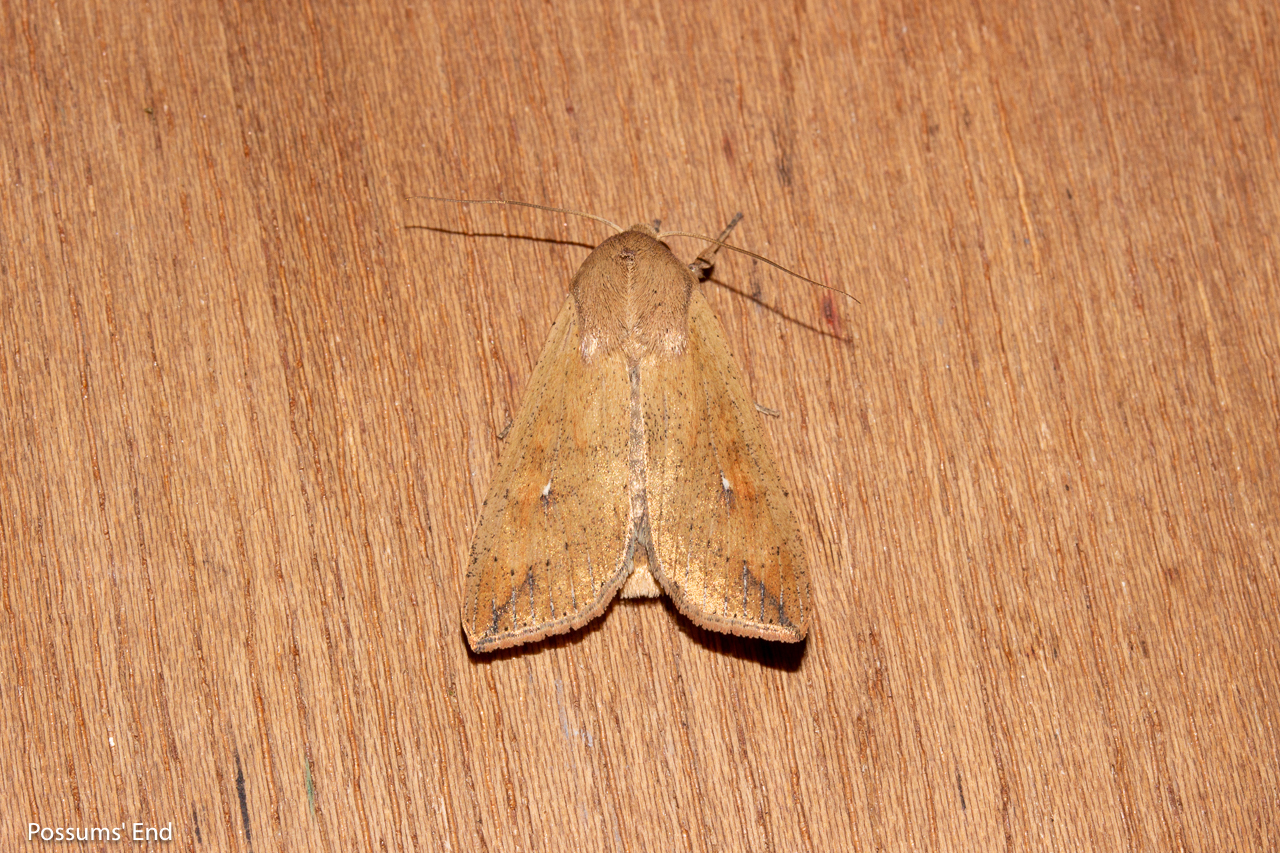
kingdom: Animalia
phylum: Arthropoda
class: Insecta
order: Lepidoptera
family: Noctuidae
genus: Mythimna
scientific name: Mythimna separata
